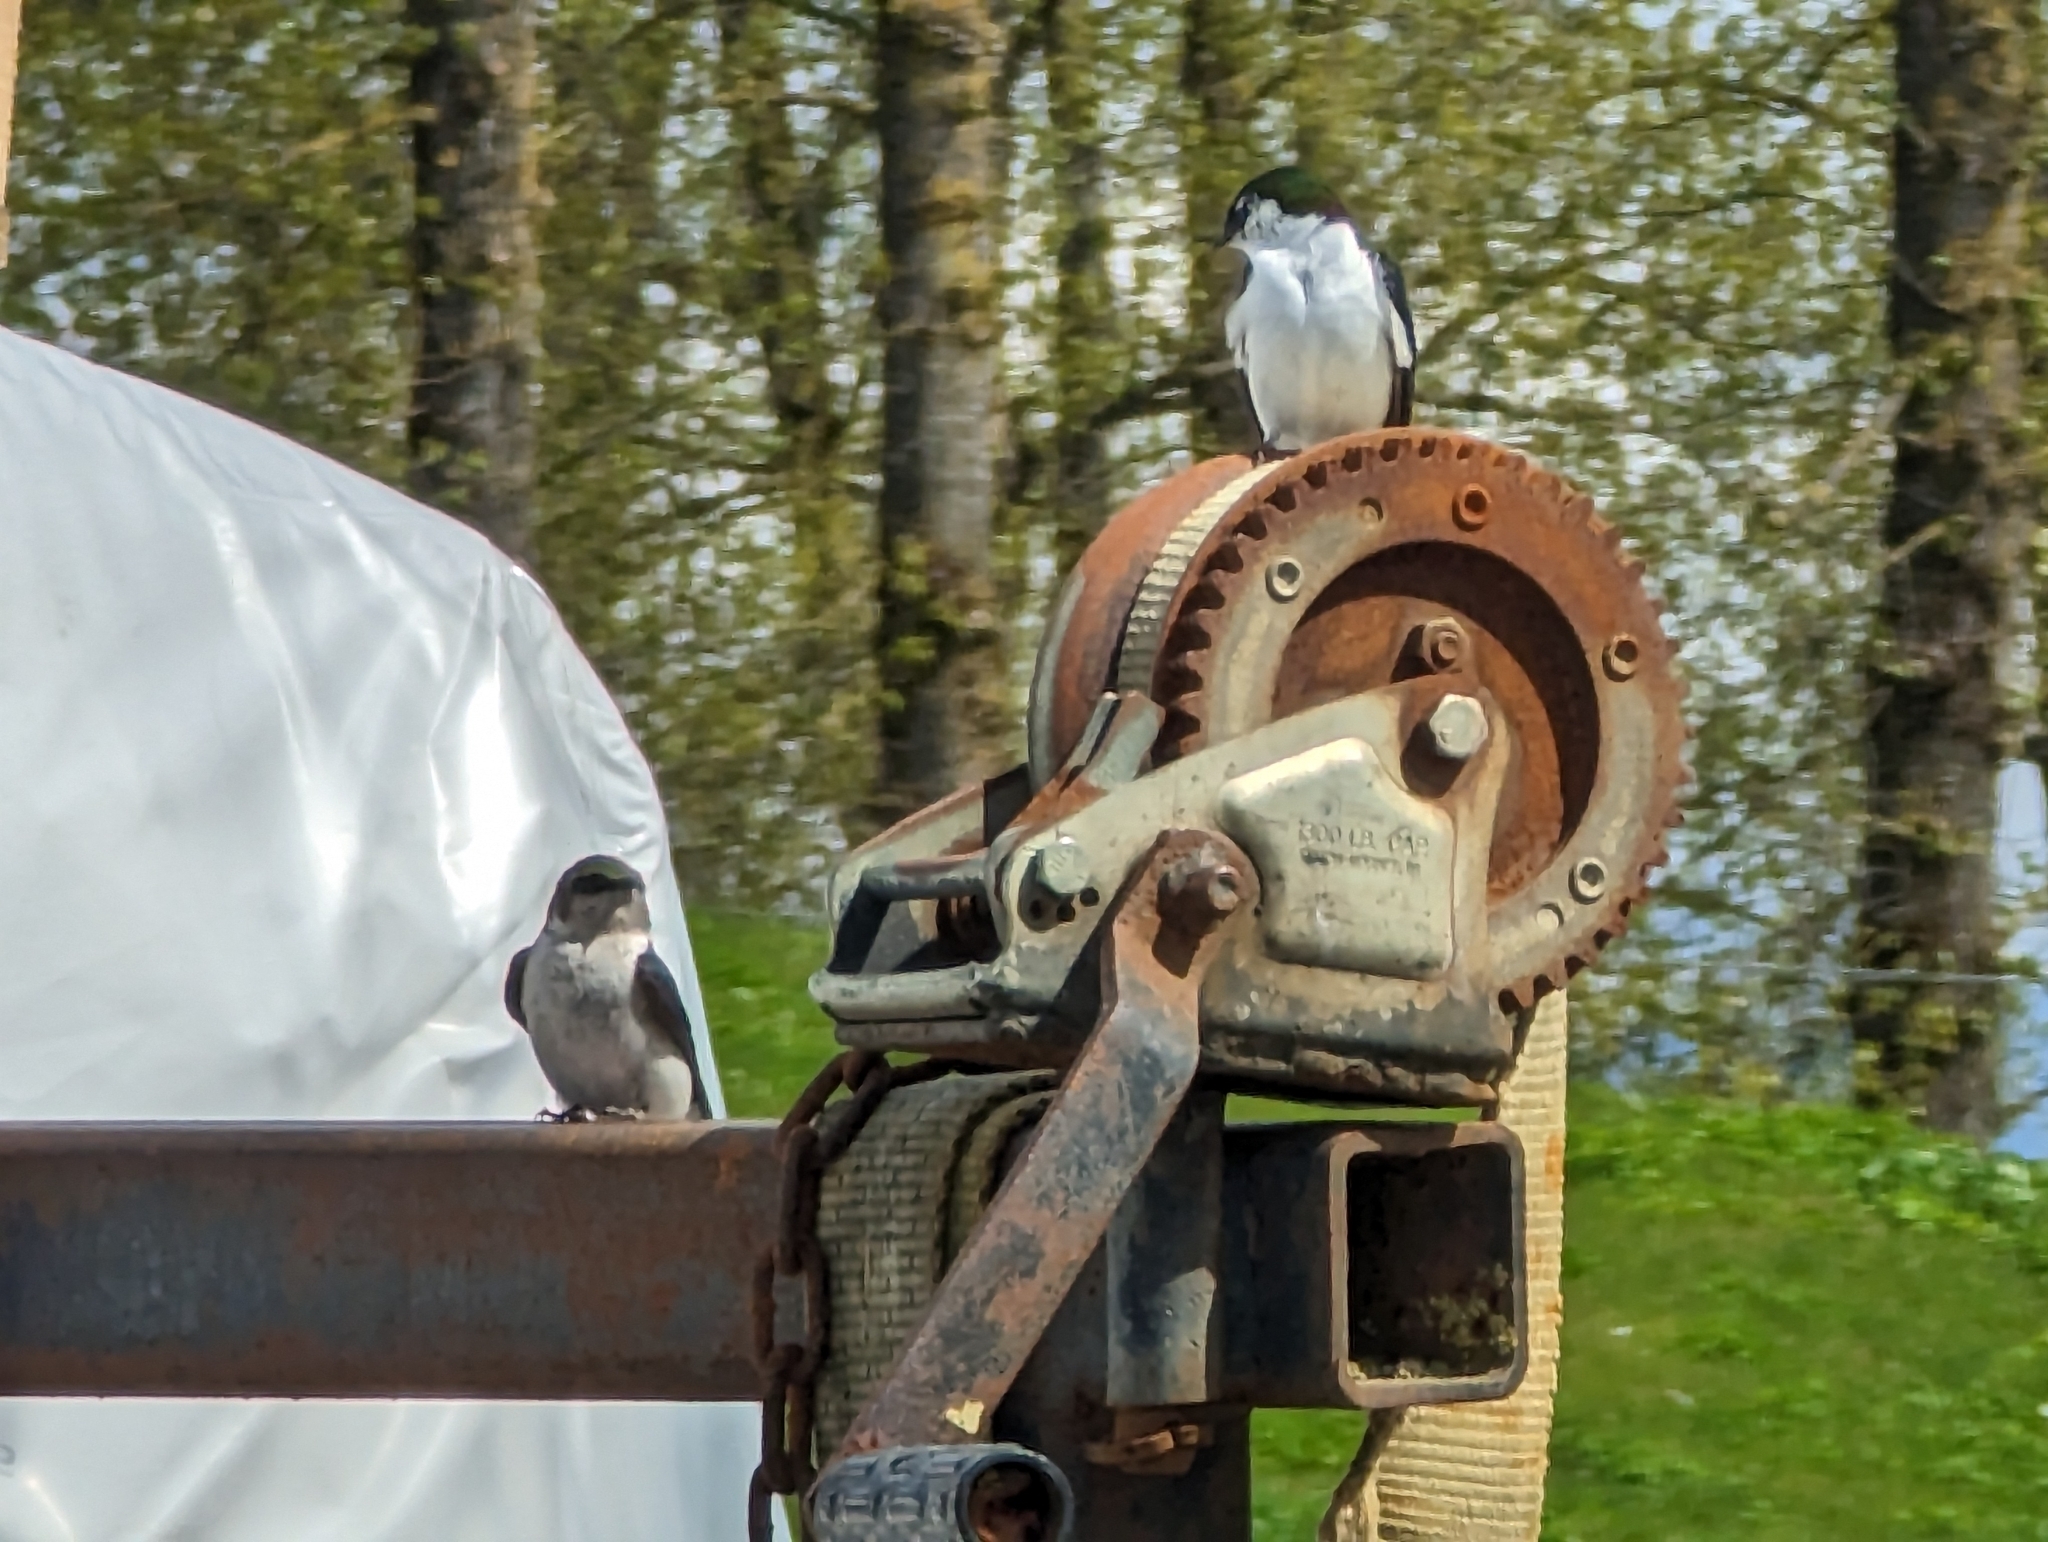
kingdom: Animalia
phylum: Chordata
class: Aves
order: Passeriformes
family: Hirundinidae
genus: Tachycineta
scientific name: Tachycineta thalassina
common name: Violet-green swallow
